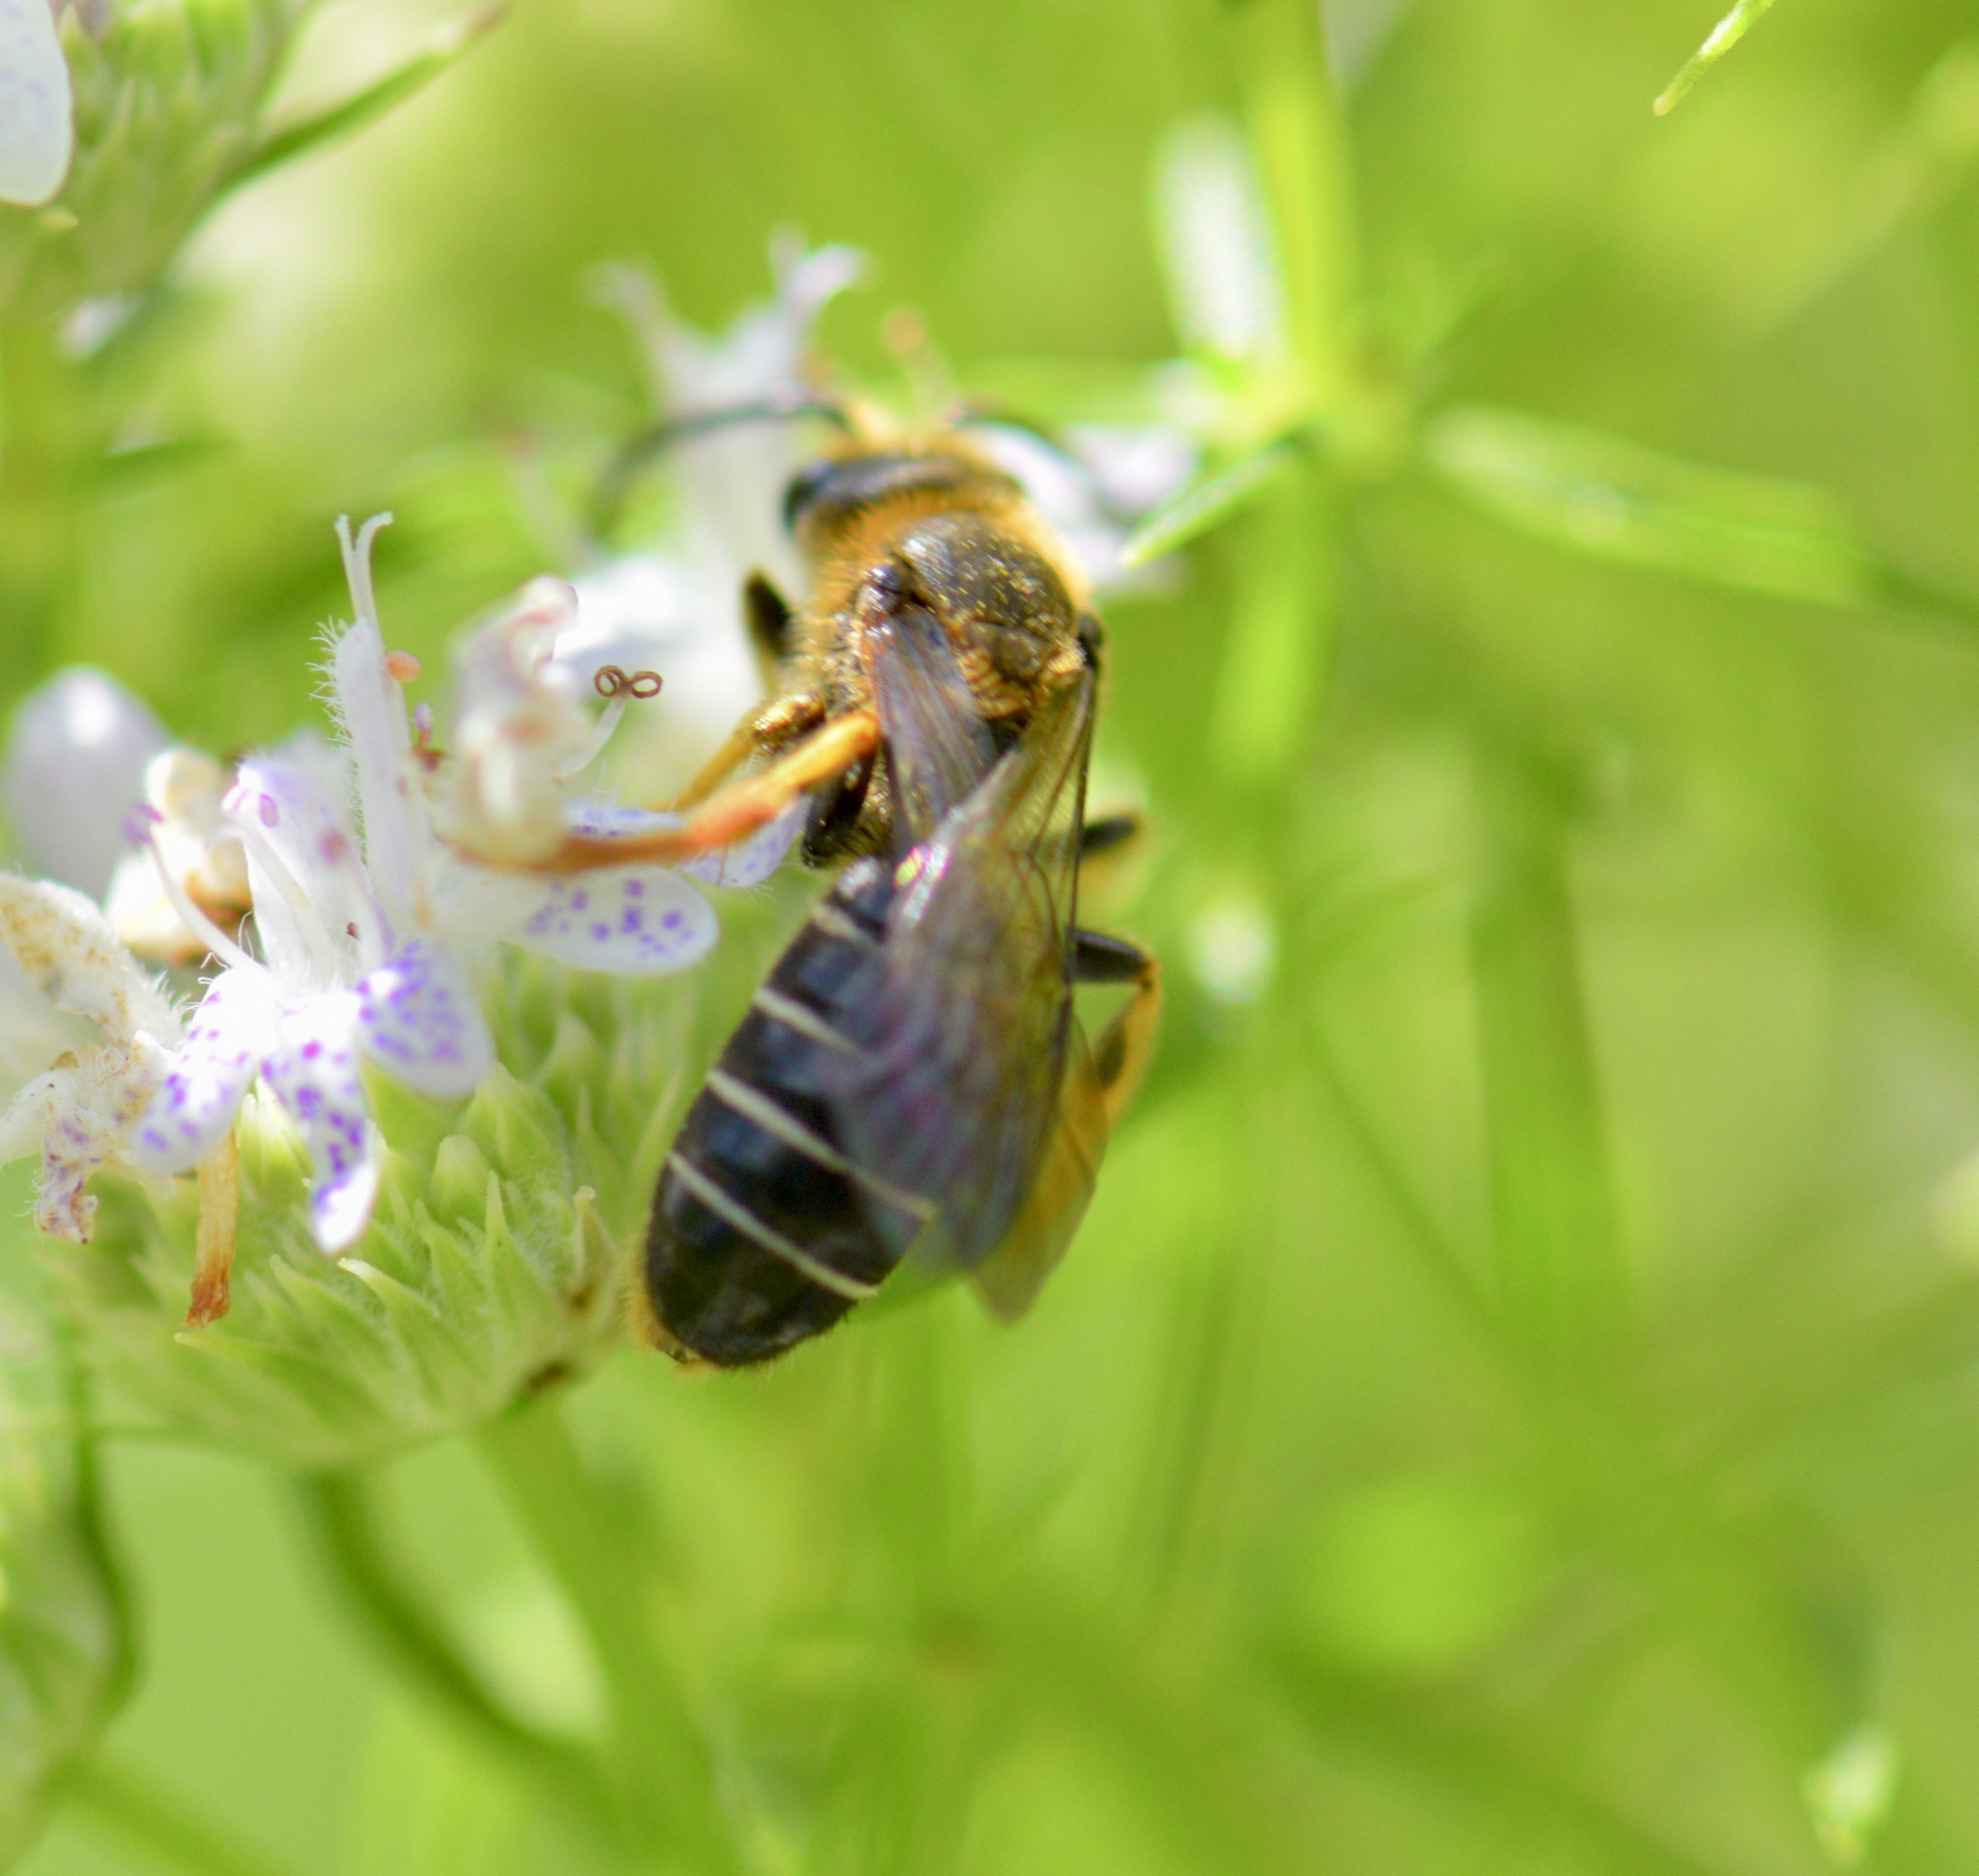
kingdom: Animalia
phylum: Arthropoda
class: Insecta
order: Hymenoptera
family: Halictidae
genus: Halictus
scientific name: Halictus rubicundus
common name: Orange-legged furrow bee
